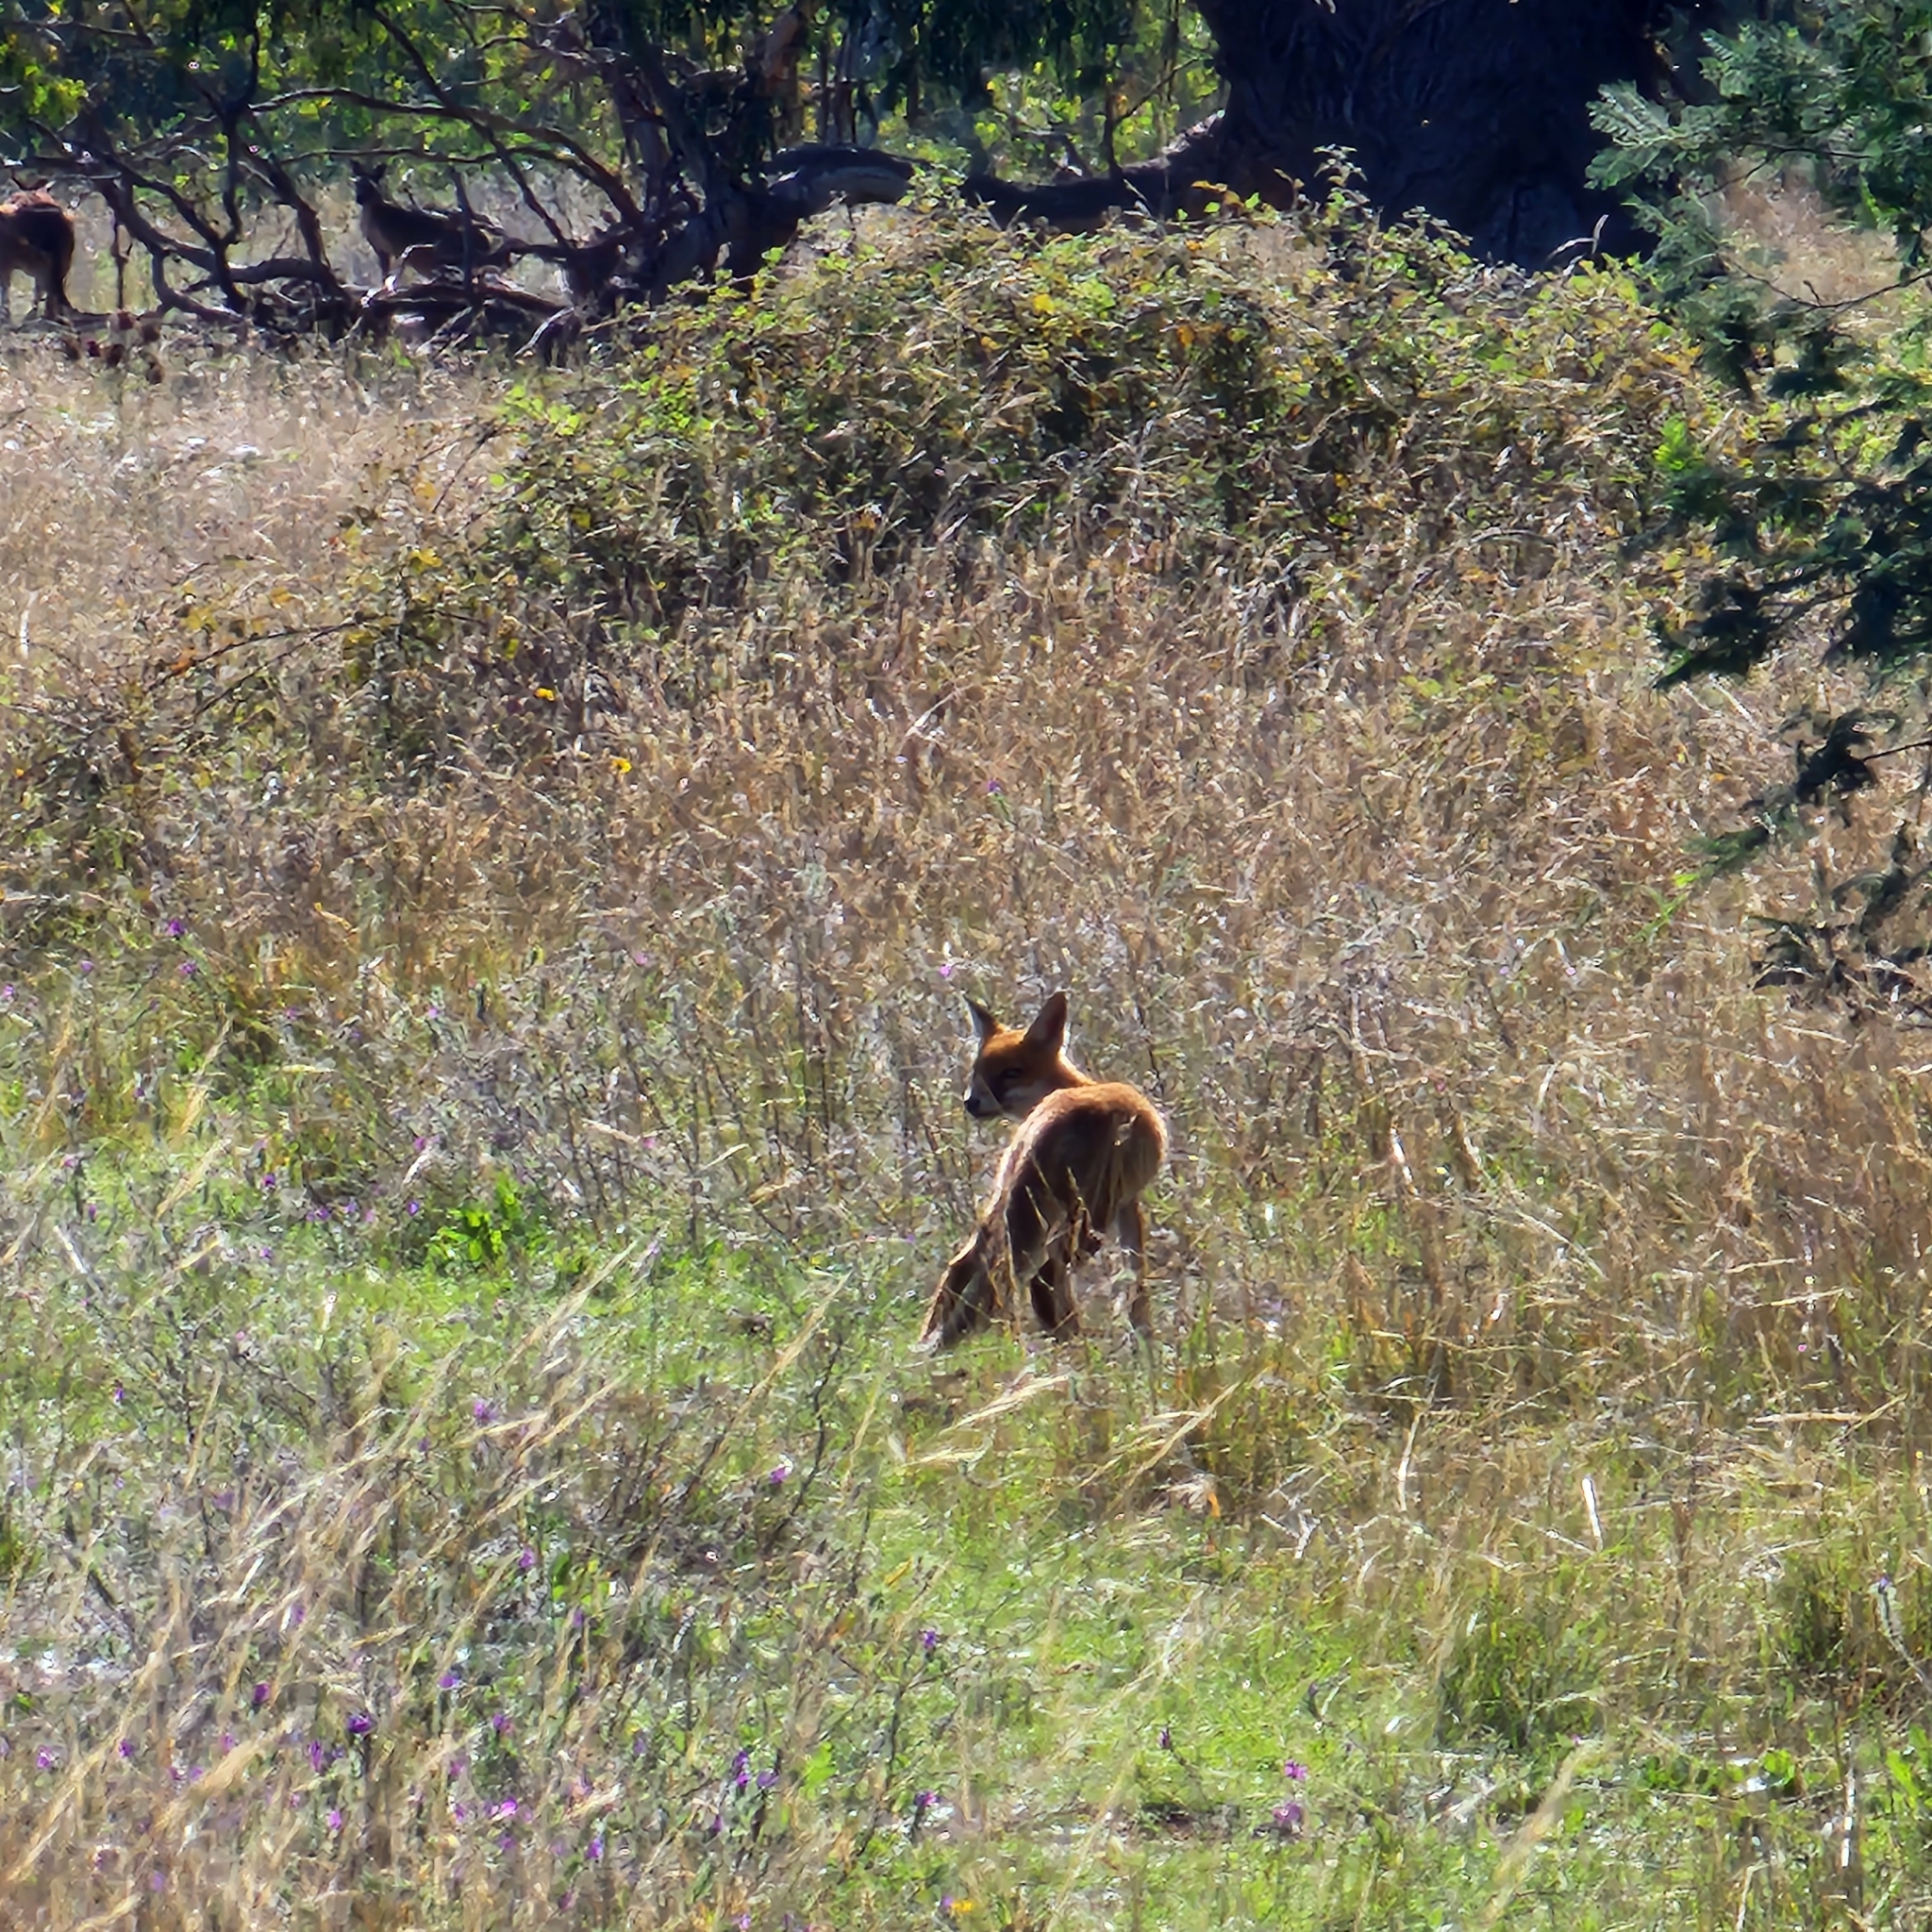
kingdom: Animalia
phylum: Chordata
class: Mammalia
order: Carnivora
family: Canidae
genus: Vulpes
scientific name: Vulpes vulpes
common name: Red fox
